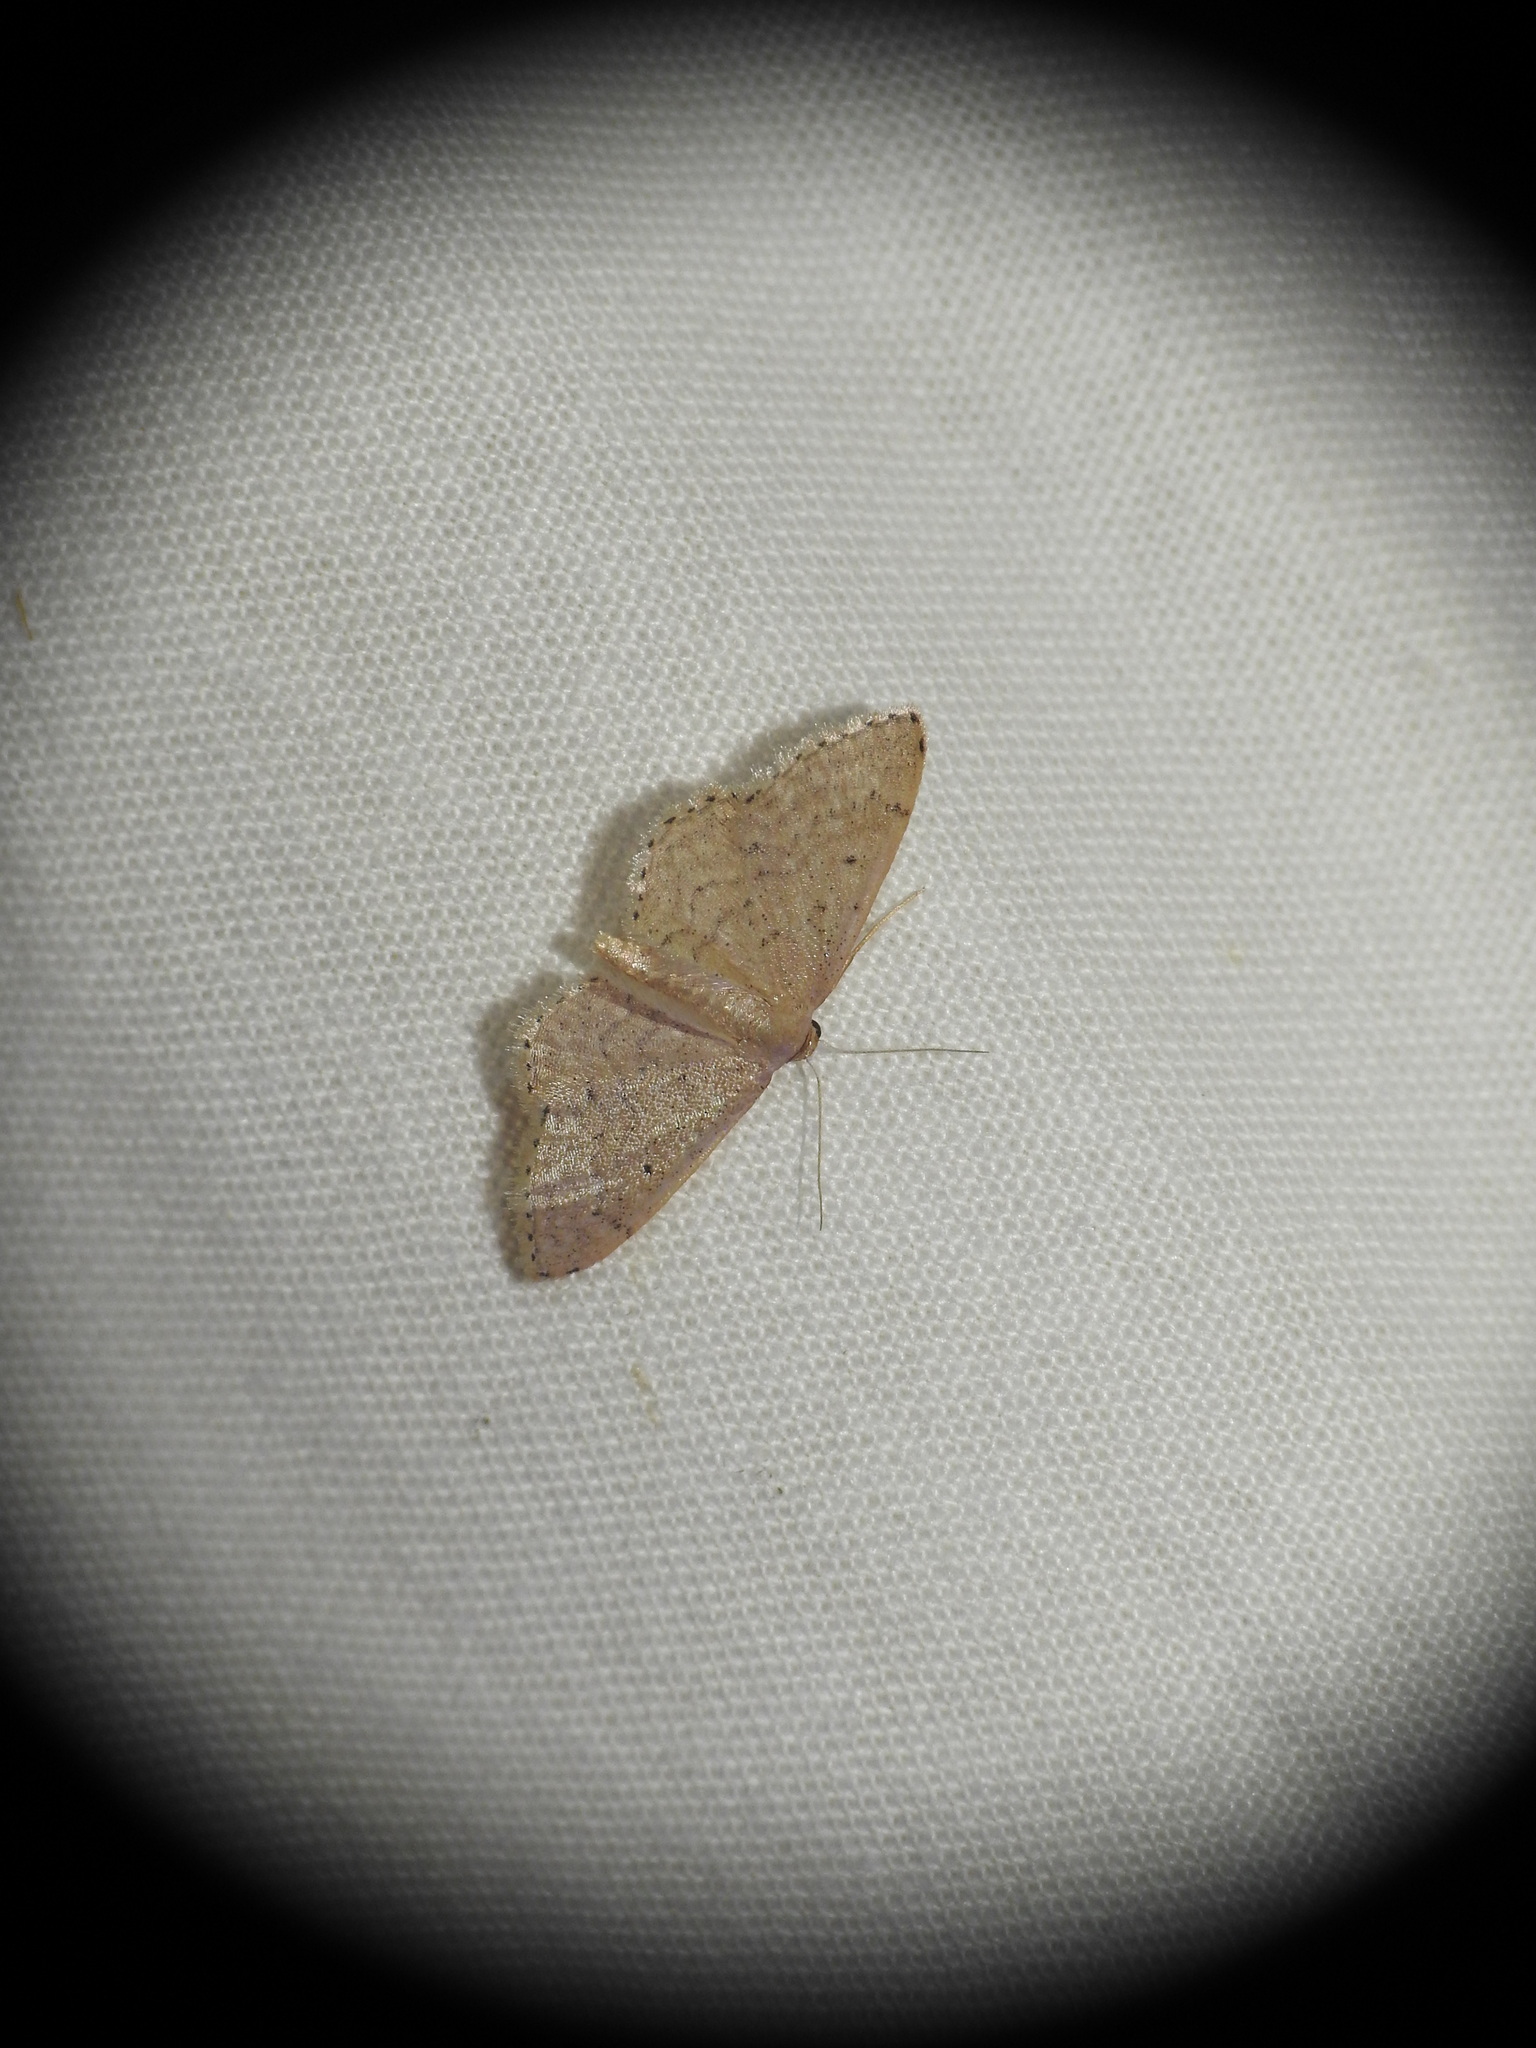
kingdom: Animalia
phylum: Arthropoda
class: Insecta
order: Lepidoptera
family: Geometridae
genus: Idaea
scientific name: Idaea obsoletaria
